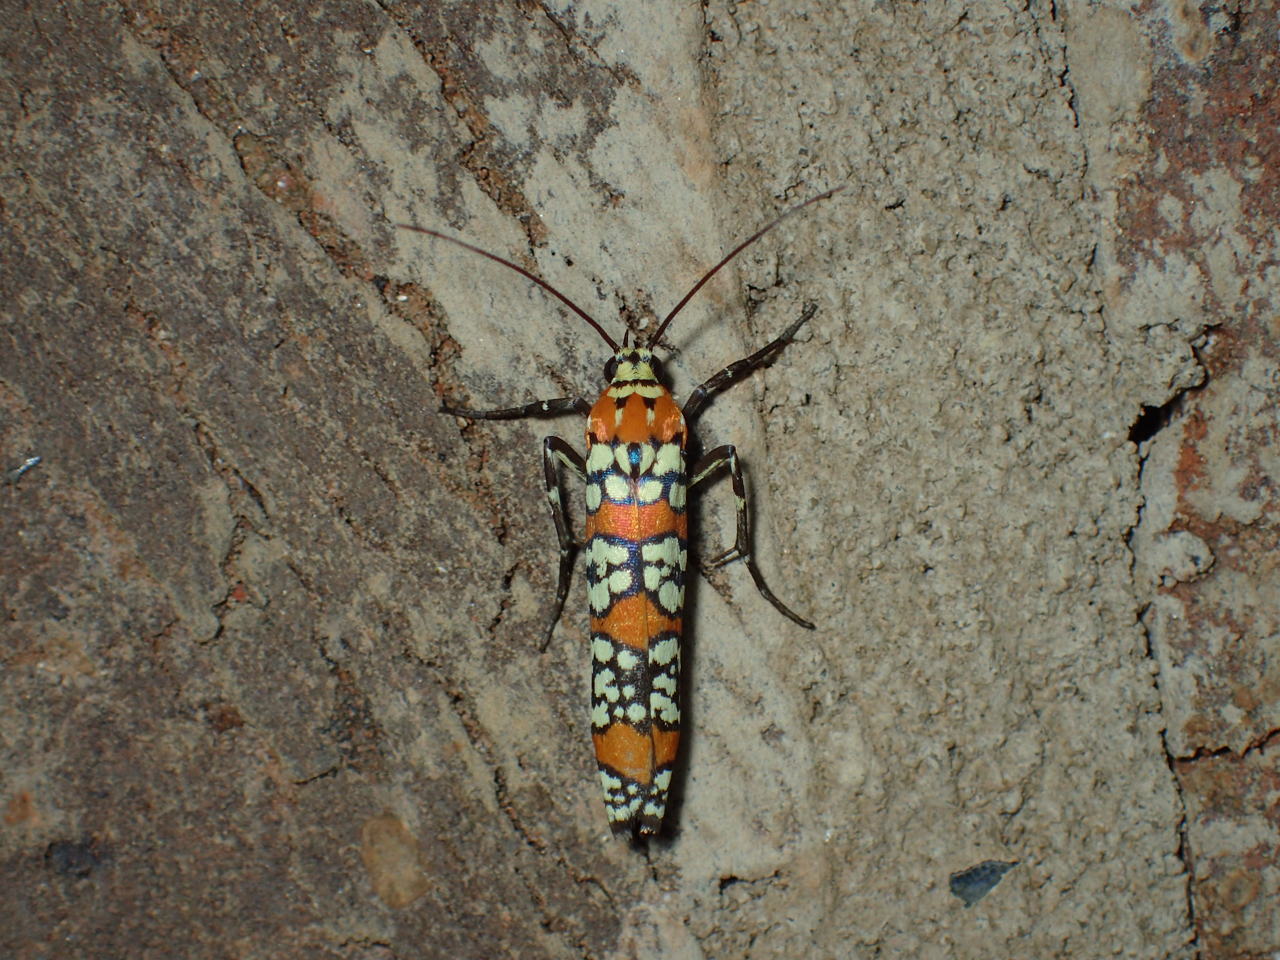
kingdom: Animalia
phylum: Arthropoda
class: Insecta
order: Lepidoptera
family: Attevidae
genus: Atteva
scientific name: Atteva punctella
